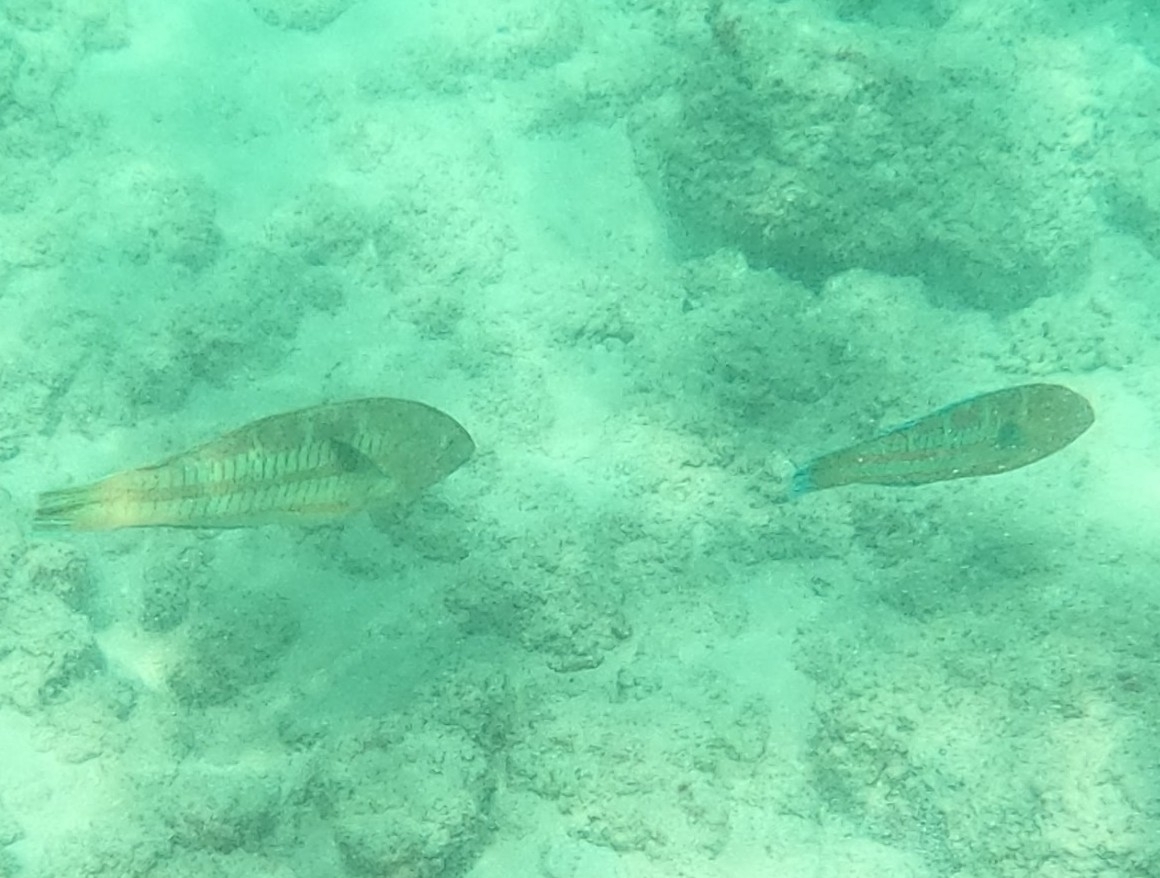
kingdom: Animalia
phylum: Chordata
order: Perciformes
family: Labridae
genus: Thalassoma
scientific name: Thalassoma trilobatum
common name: Christmas wrasse
